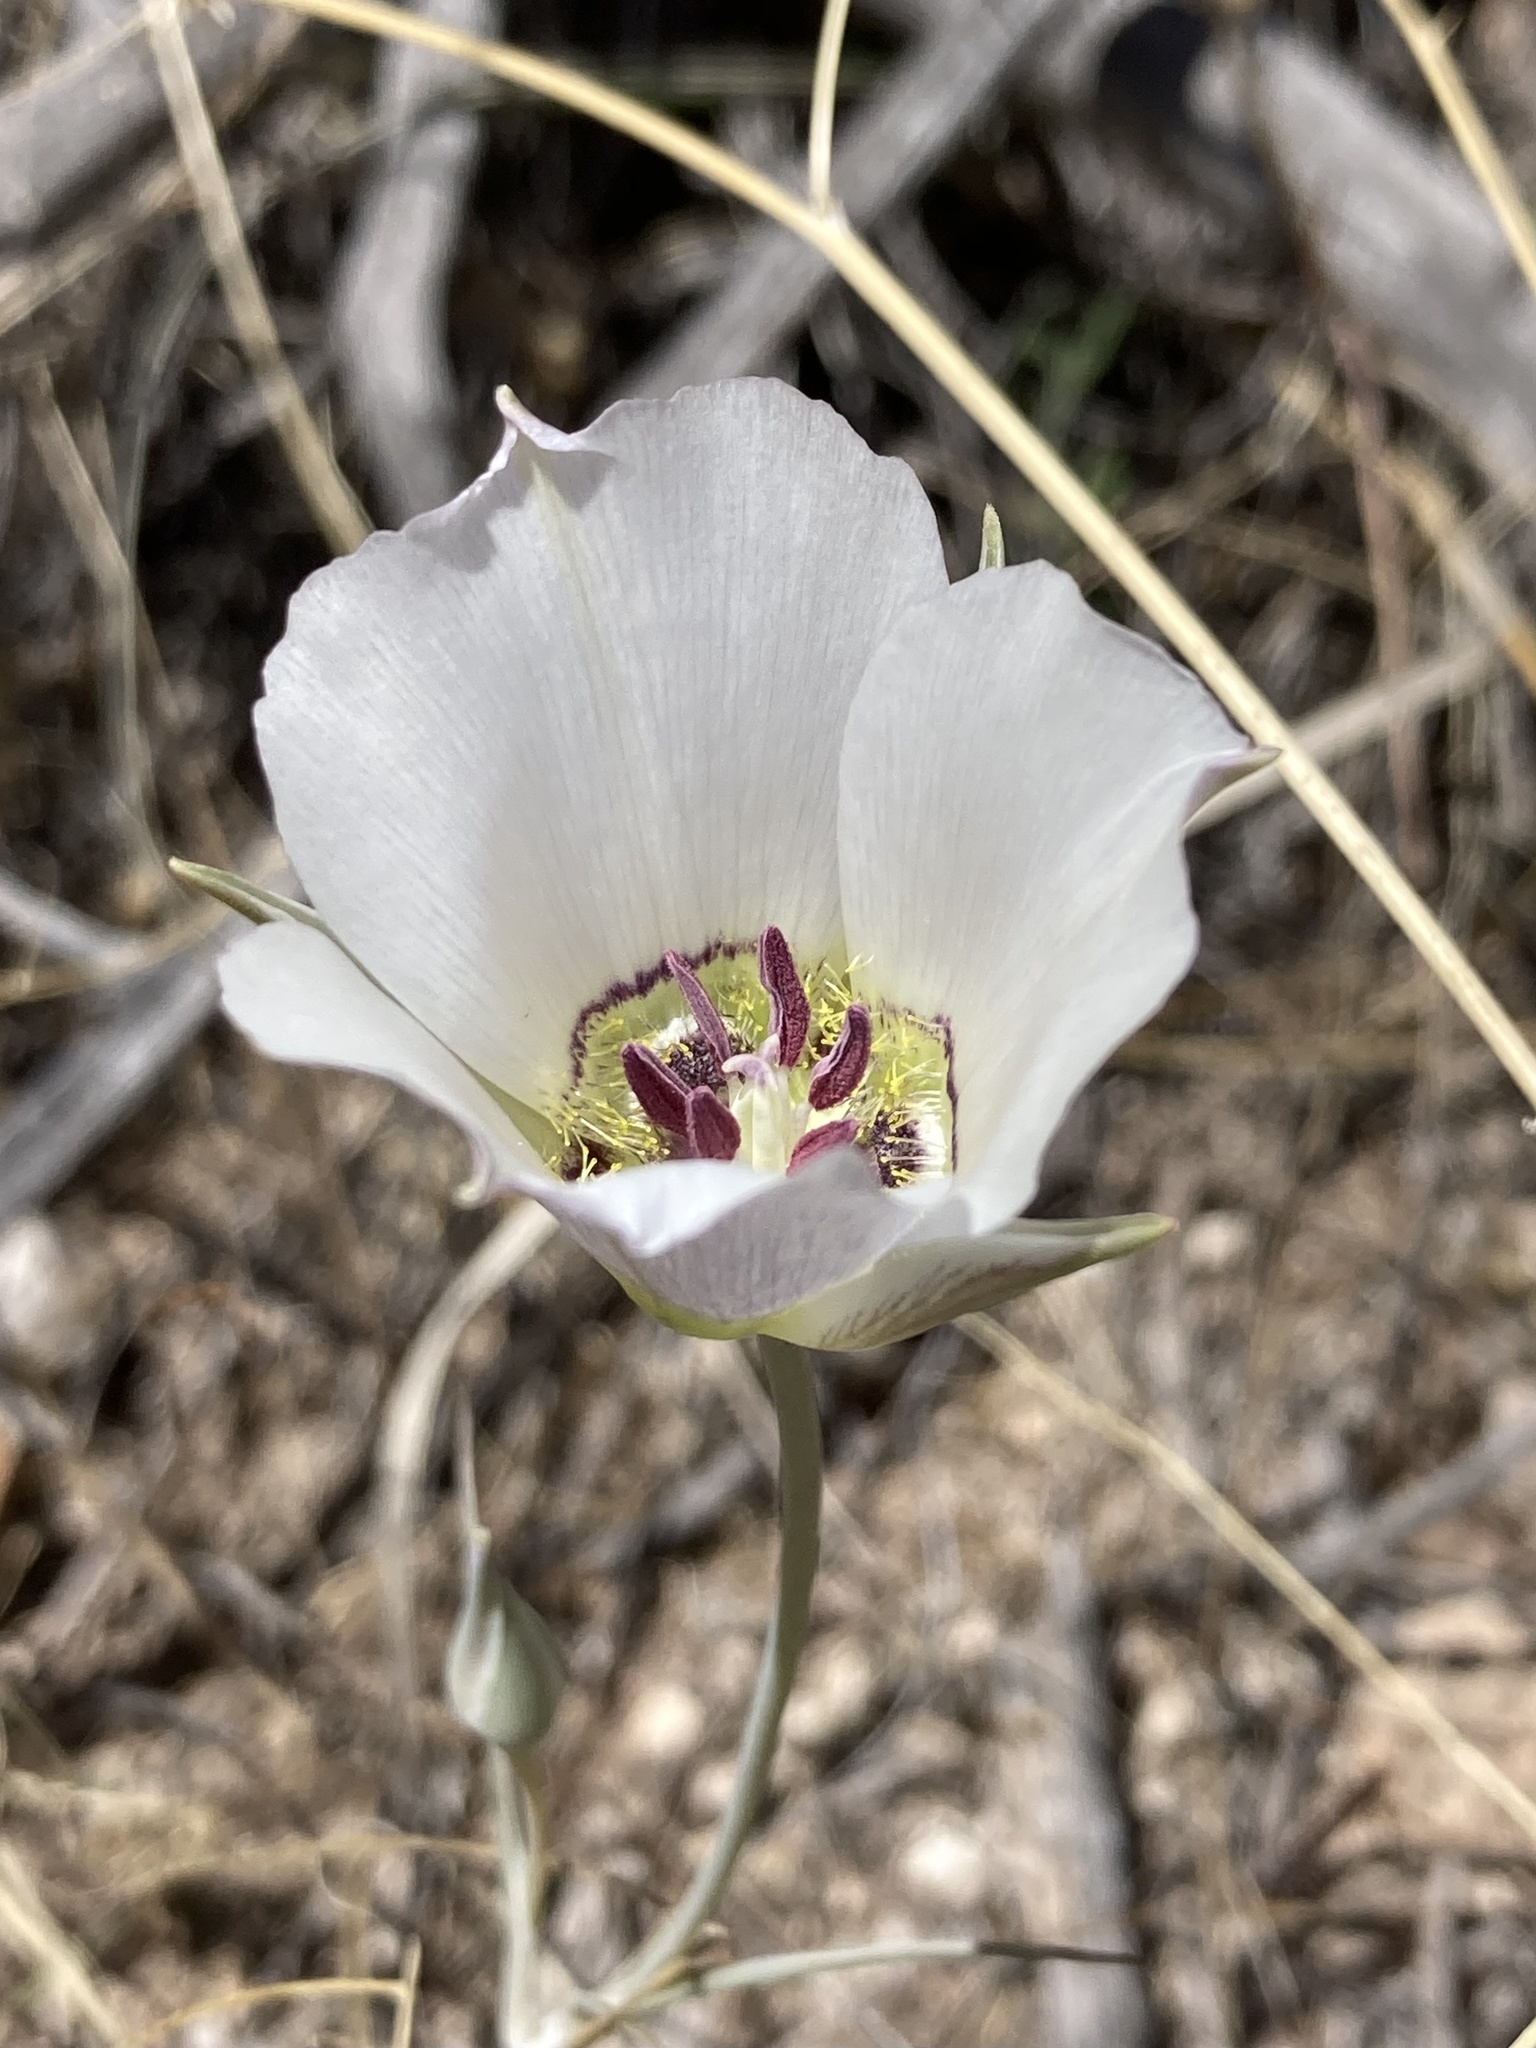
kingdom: Plantae
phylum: Tracheophyta
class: Liliopsida
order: Liliales
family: Liliaceae
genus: Calochortus
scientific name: Calochortus ambiguus
